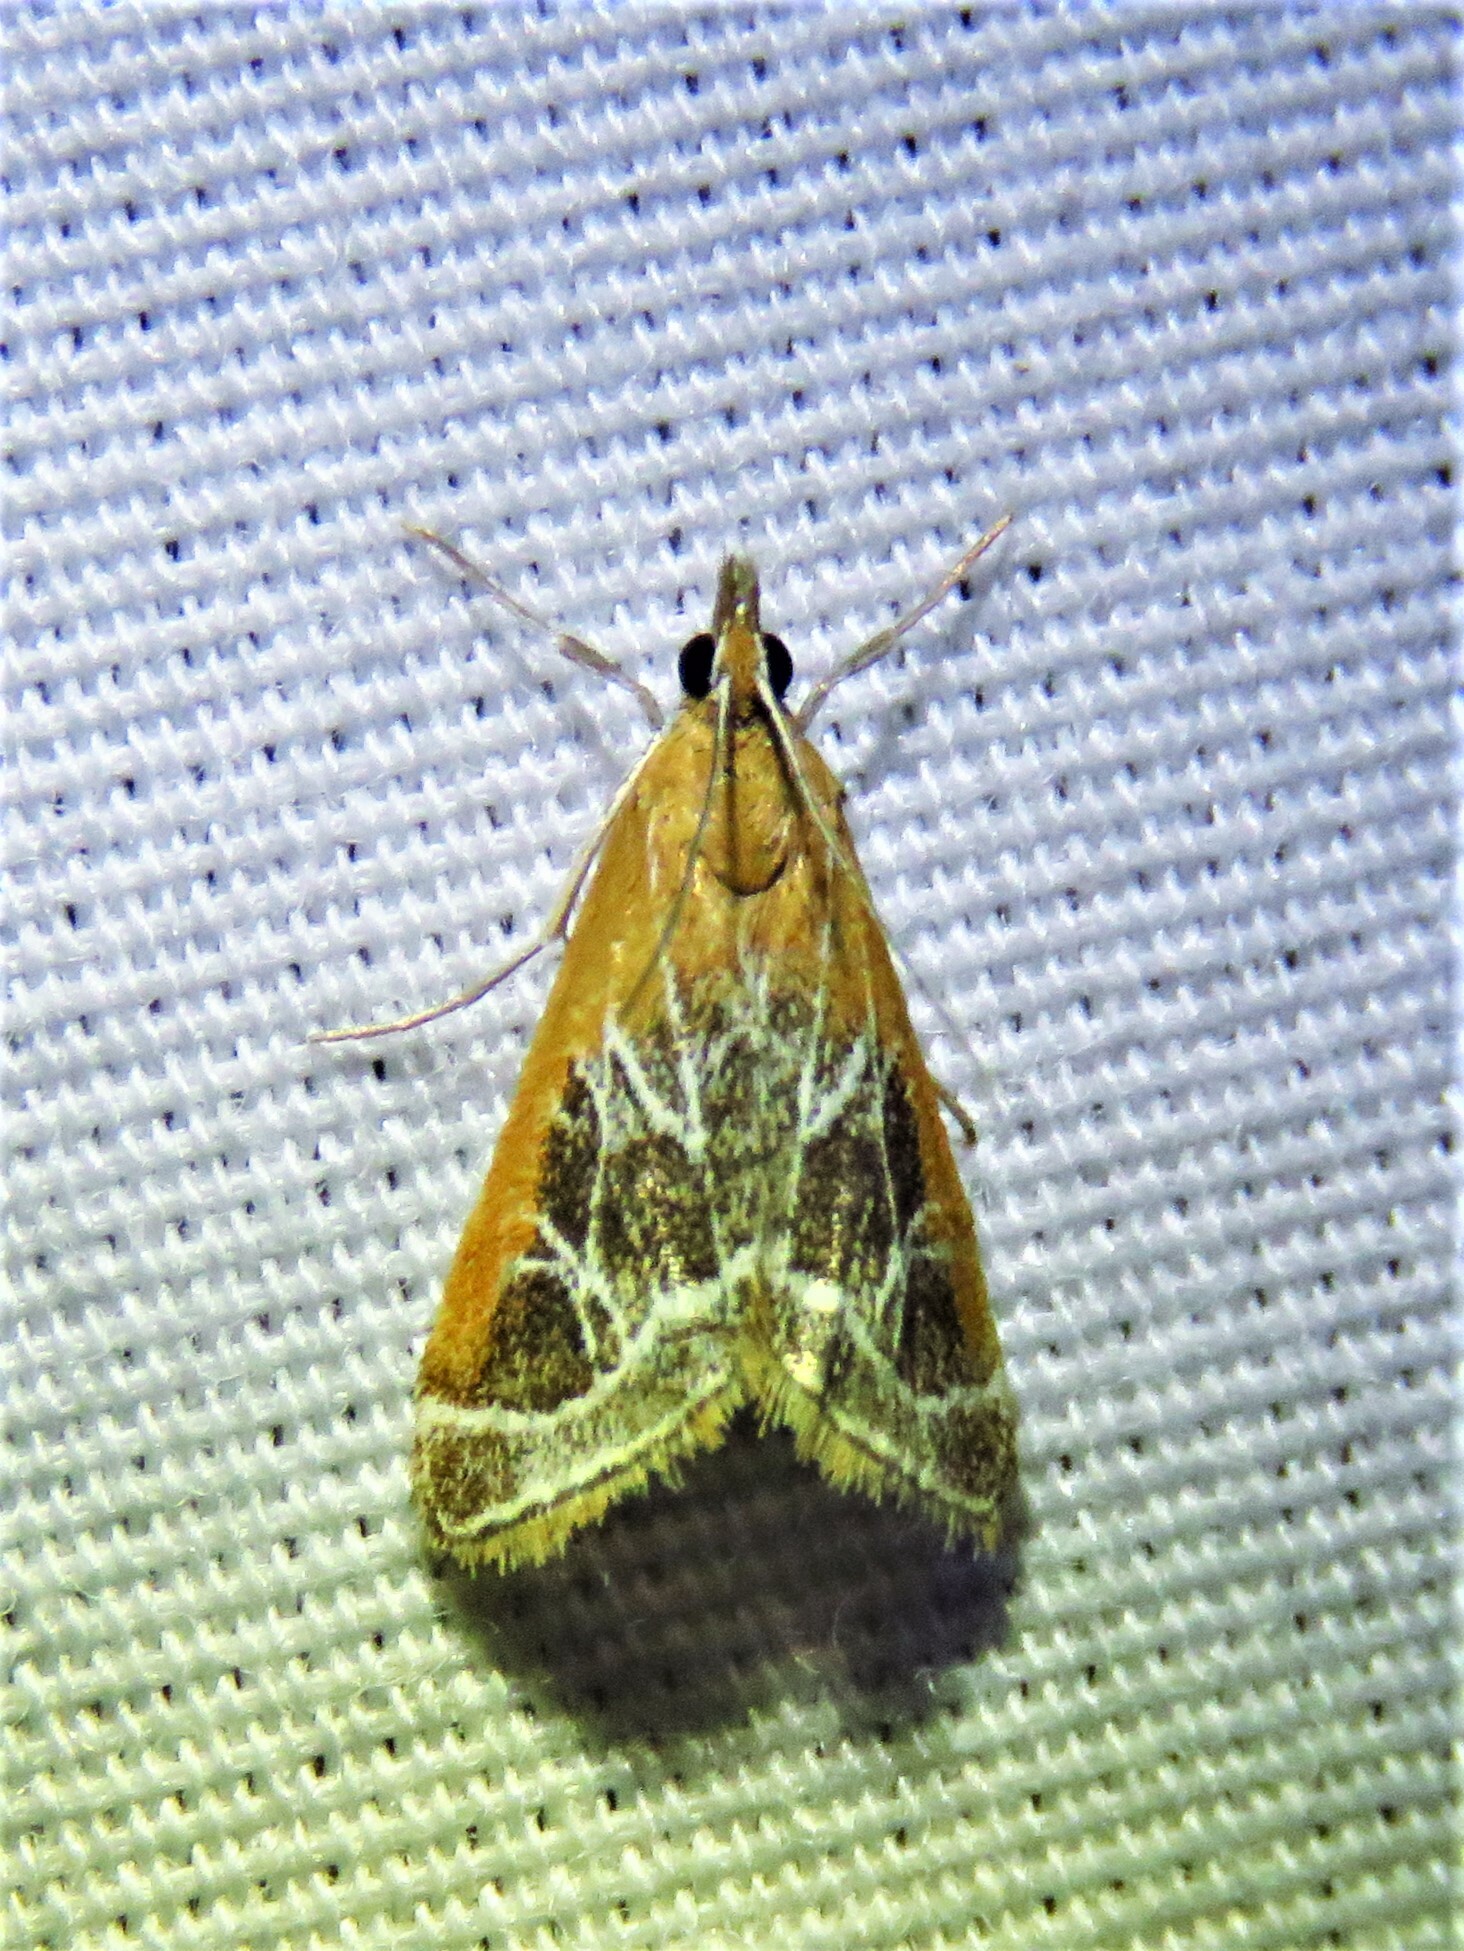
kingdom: Animalia
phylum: Arthropoda
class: Insecta
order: Lepidoptera
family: Crambidae
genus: Pyrausta
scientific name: Pyrausta nexalis
